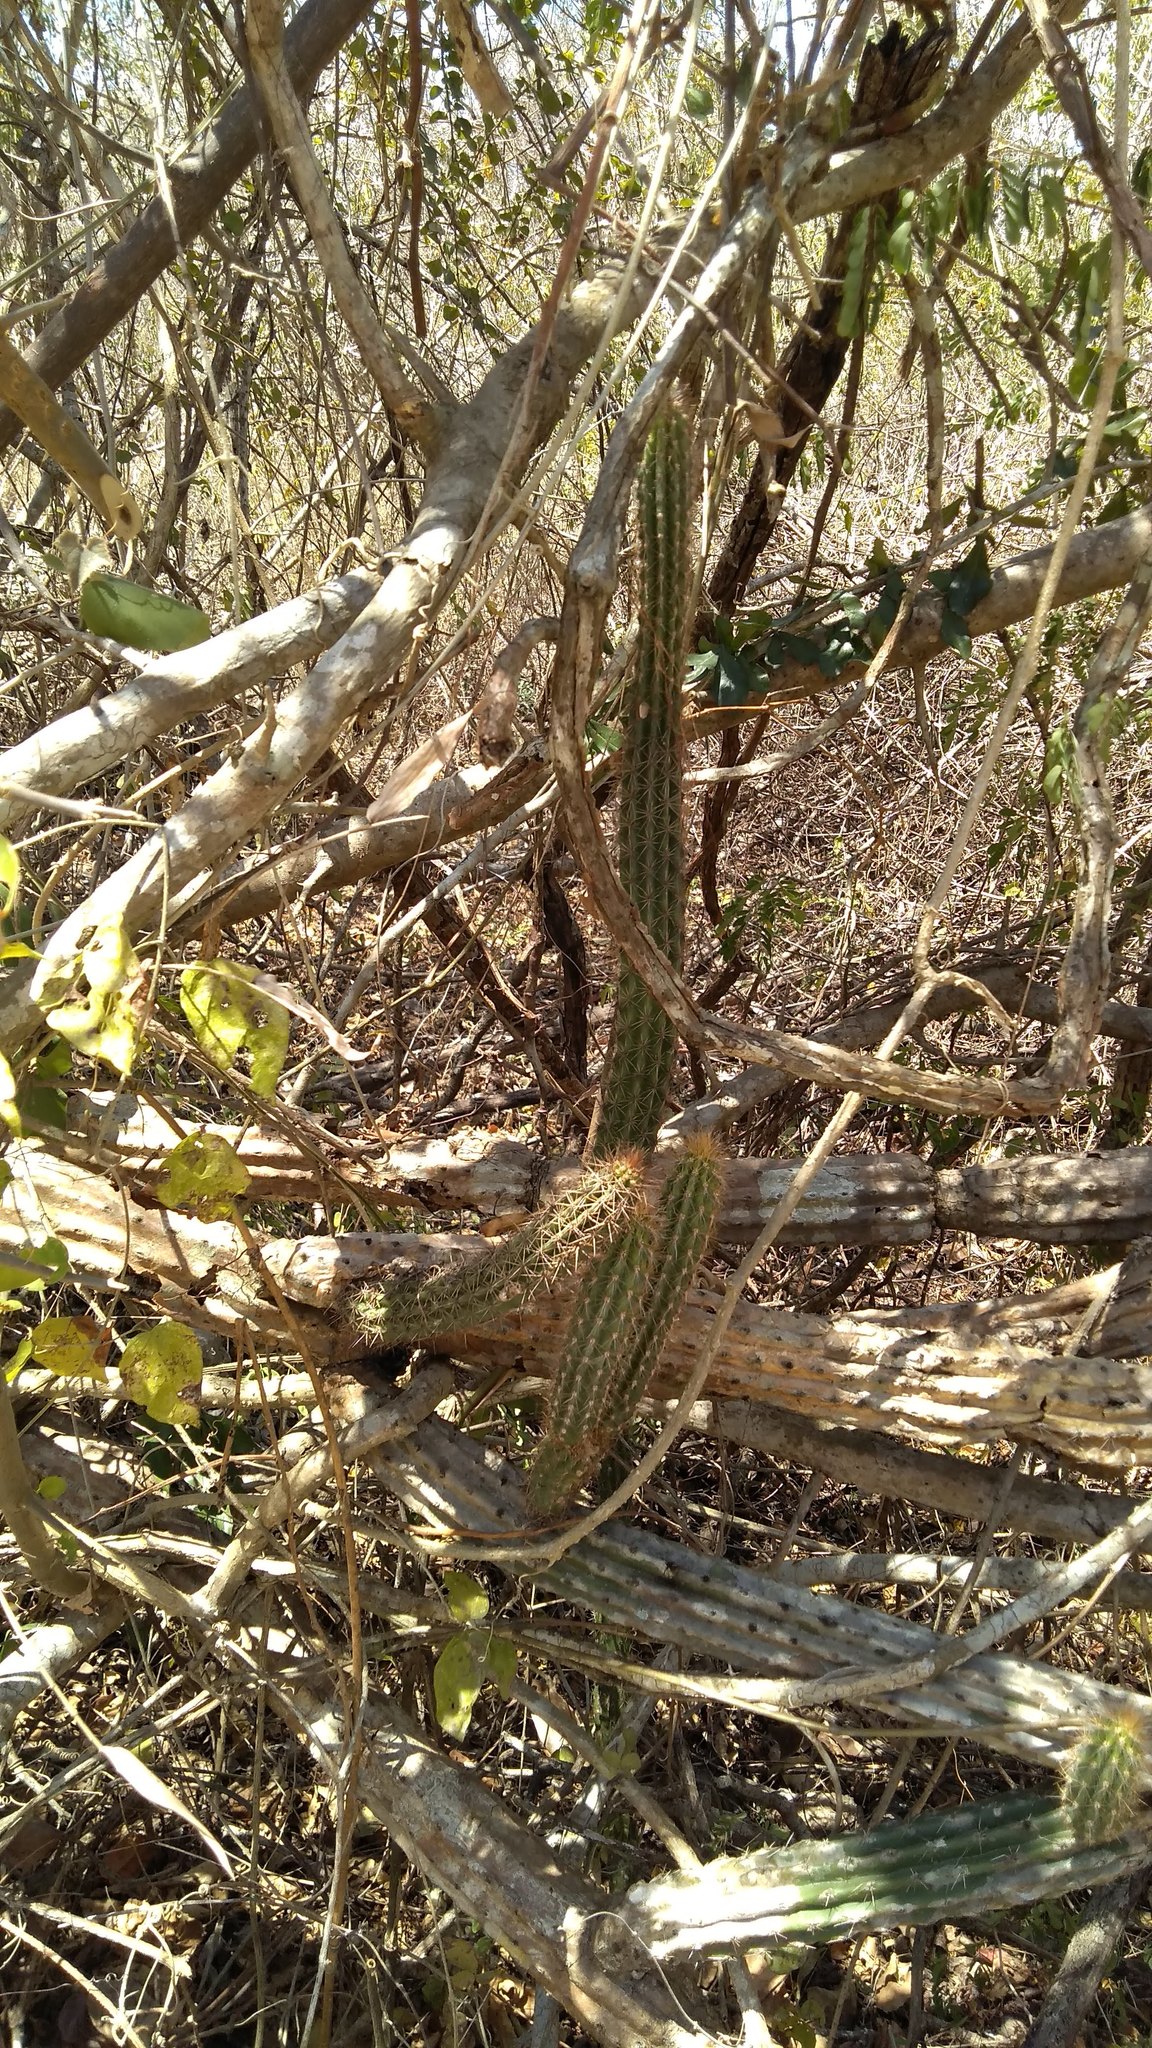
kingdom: Plantae
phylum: Tracheophyta
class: Magnoliopsida
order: Caryophyllales
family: Cactaceae
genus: Pilosocereus
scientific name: Pilosocereus gaumeri
